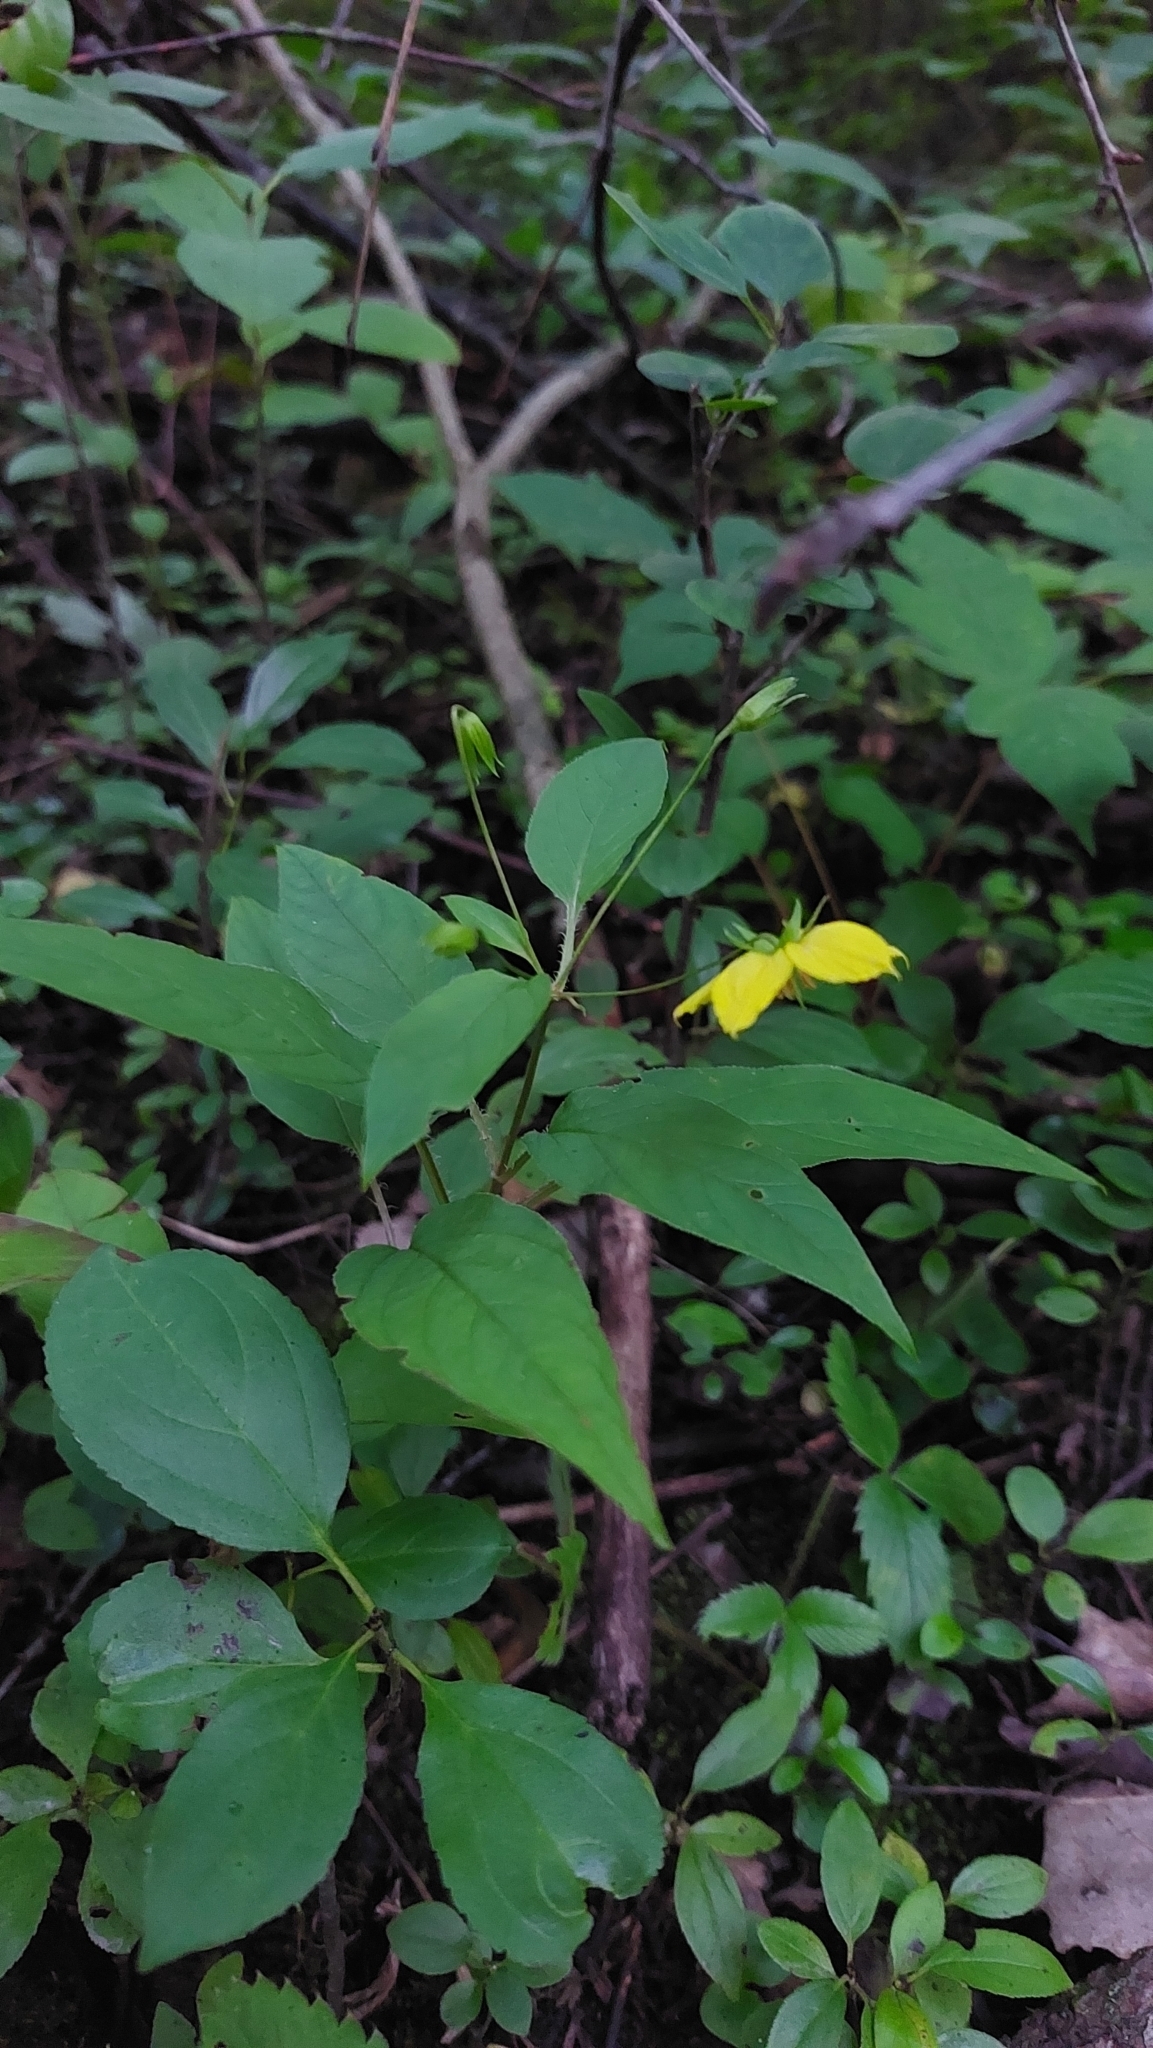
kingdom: Plantae
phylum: Tracheophyta
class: Magnoliopsida
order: Ericales
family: Primulaceae
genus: Lysimachia
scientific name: Lysimachia ciliata
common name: Fringed loosestrife
